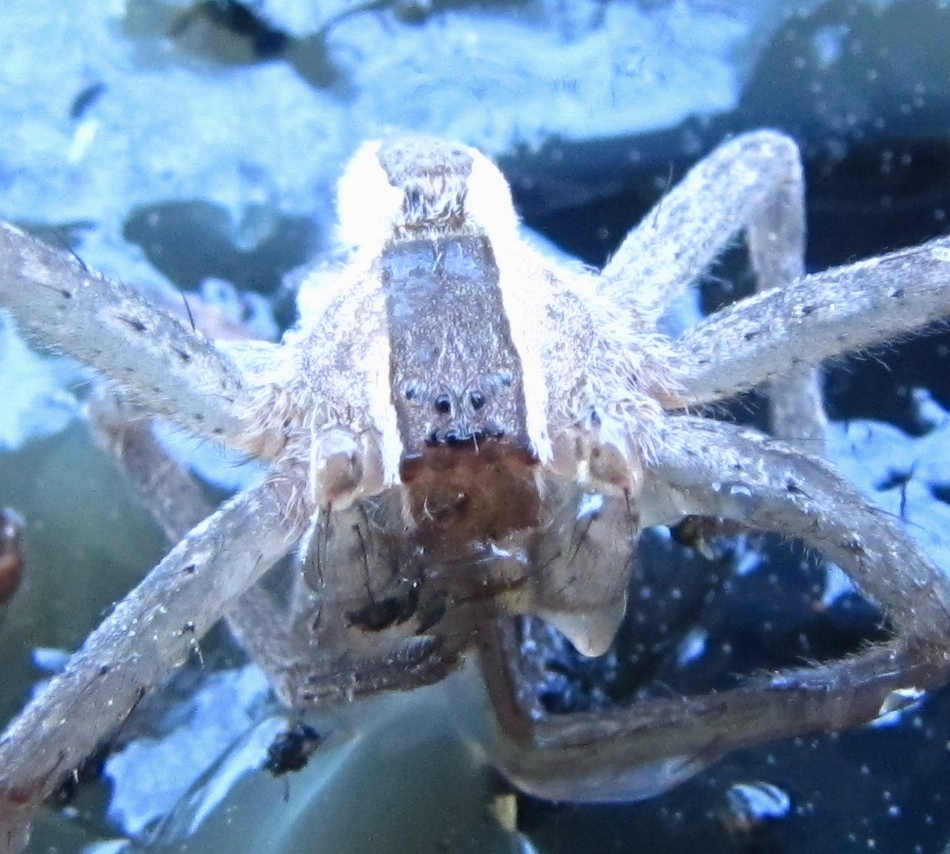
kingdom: Animalia
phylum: Arthropoda
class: Arachnida
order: Araneae
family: Pisauridae
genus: Pisaurina
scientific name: Pisaurina mira
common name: American nursery web spider
